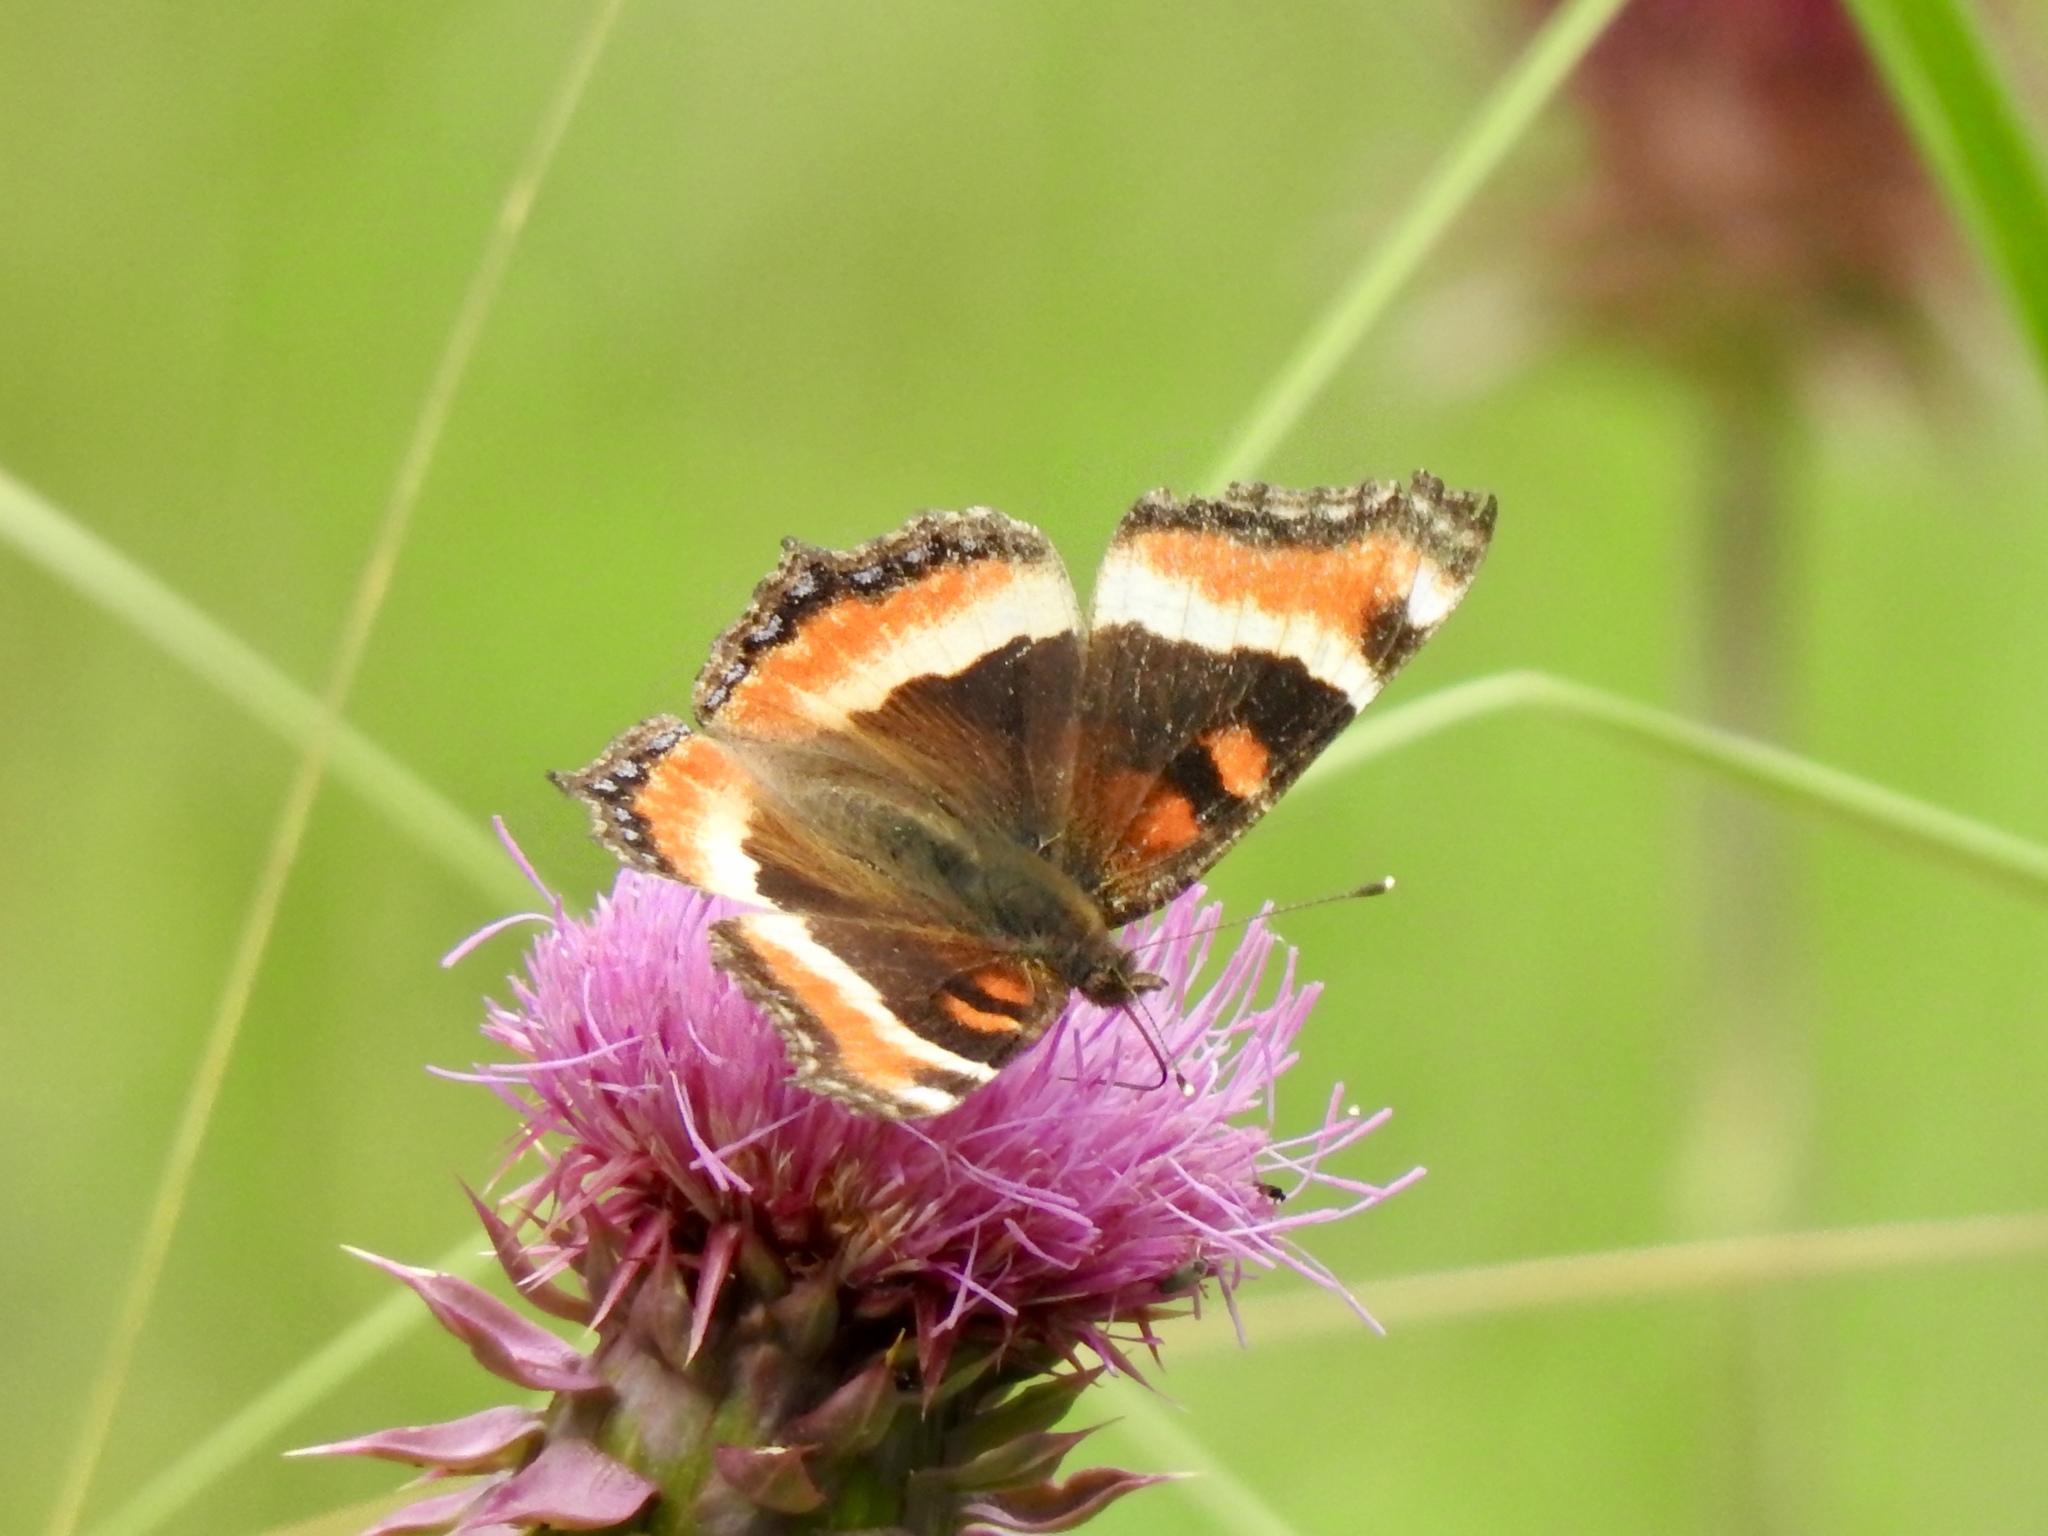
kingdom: Animalia
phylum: Arthropoda
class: Insecta
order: Lepidoptera
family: Nymphalidae
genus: Aglais
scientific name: Aglais milberti
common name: Milbert's tortoiseshell
